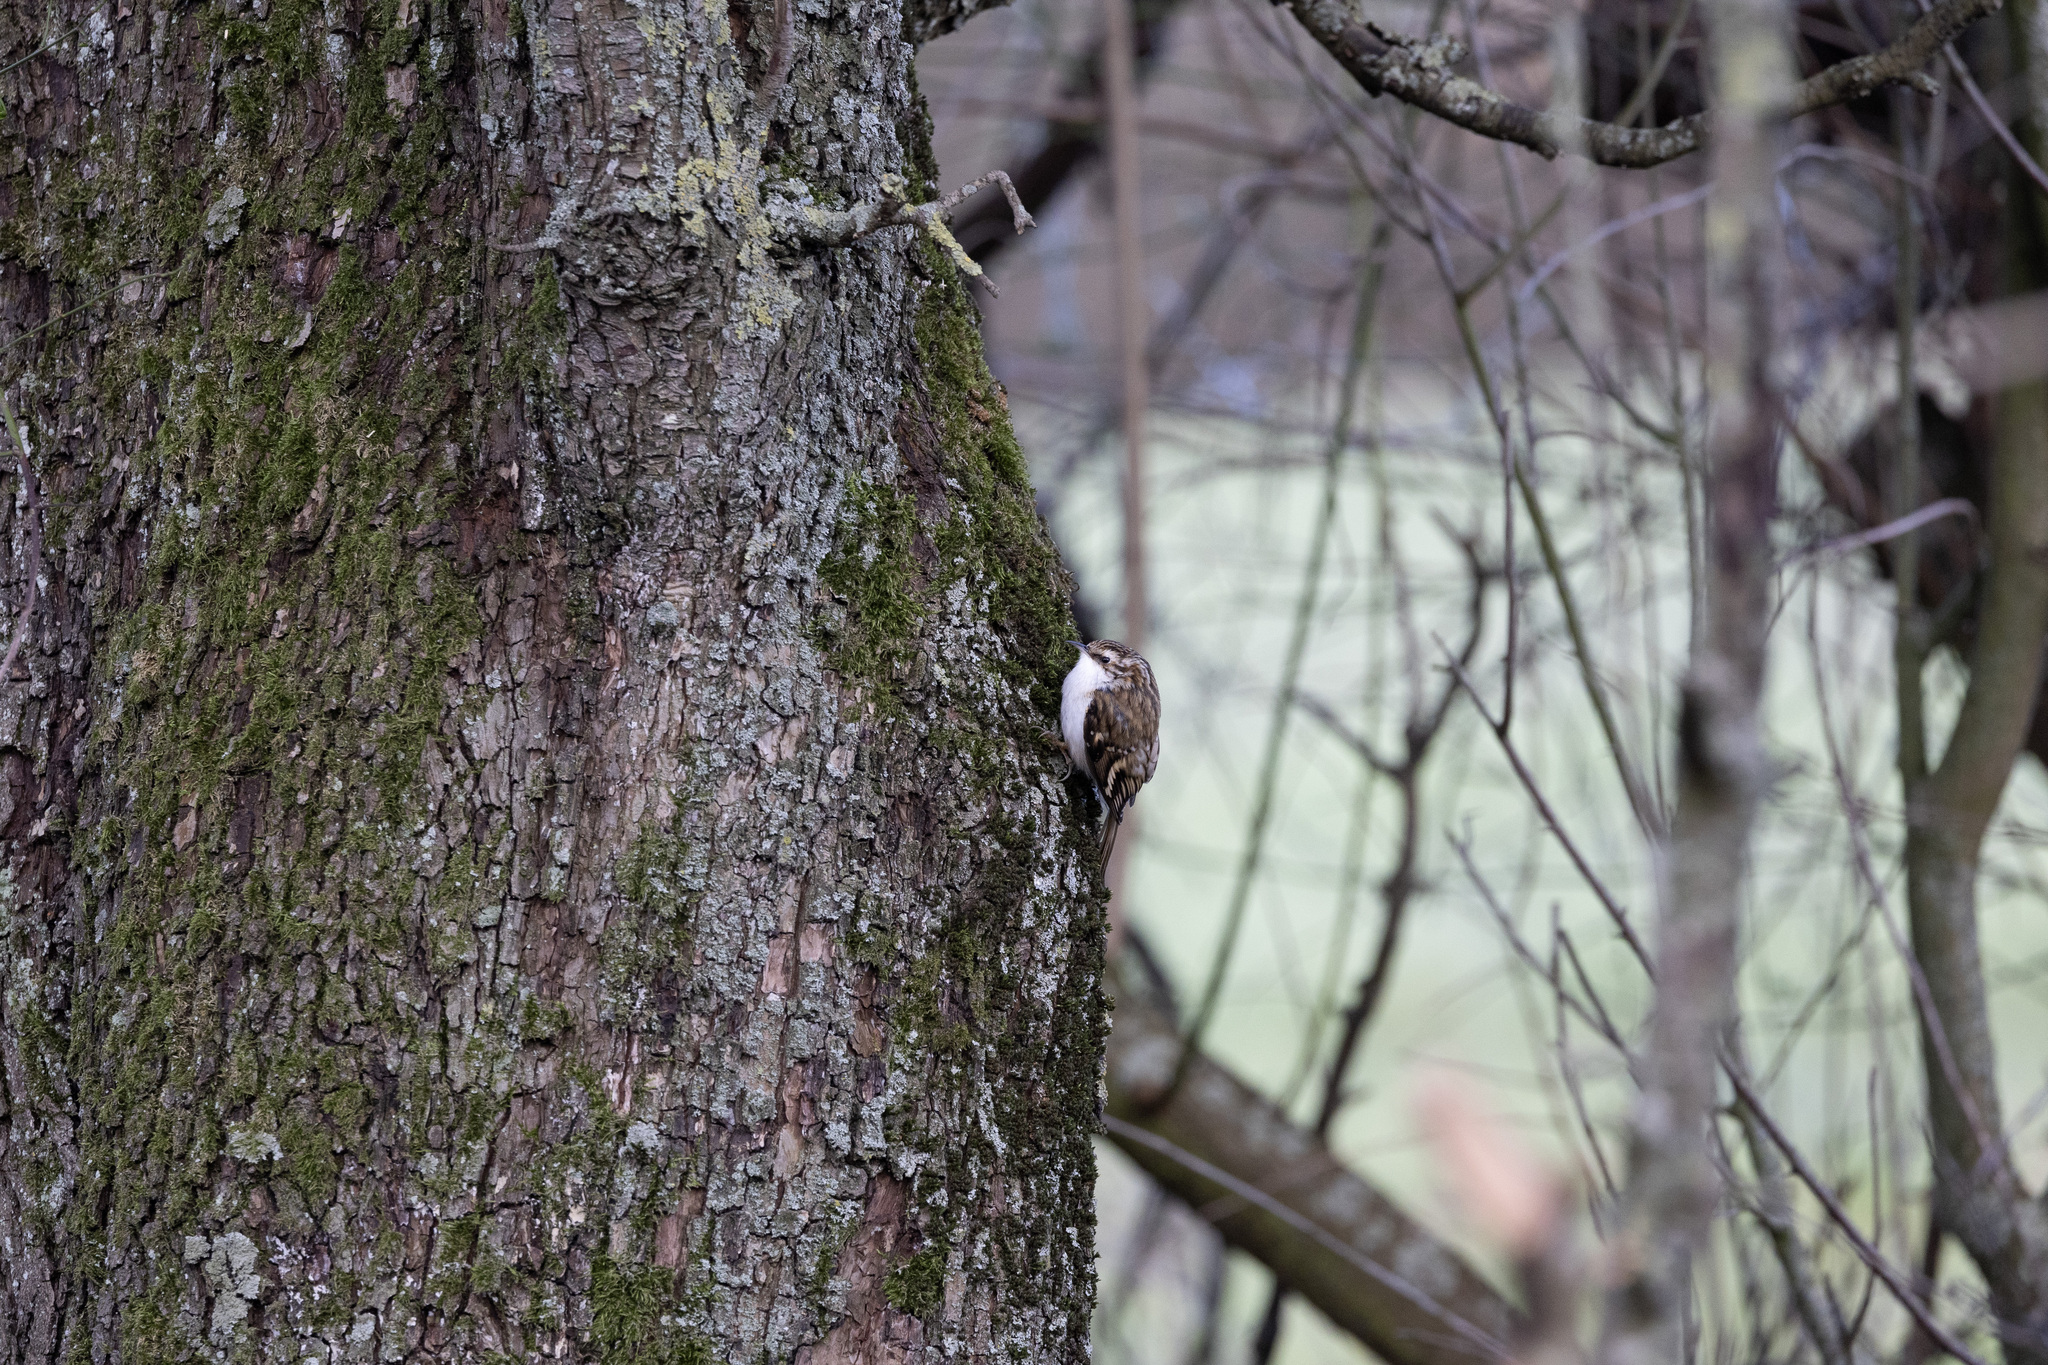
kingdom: Animalia
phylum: Chordata
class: Aves
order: Passeriformes
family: Certhiidae
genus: Certhia
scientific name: Certhia familiaris
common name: Eurasian treecreeper
